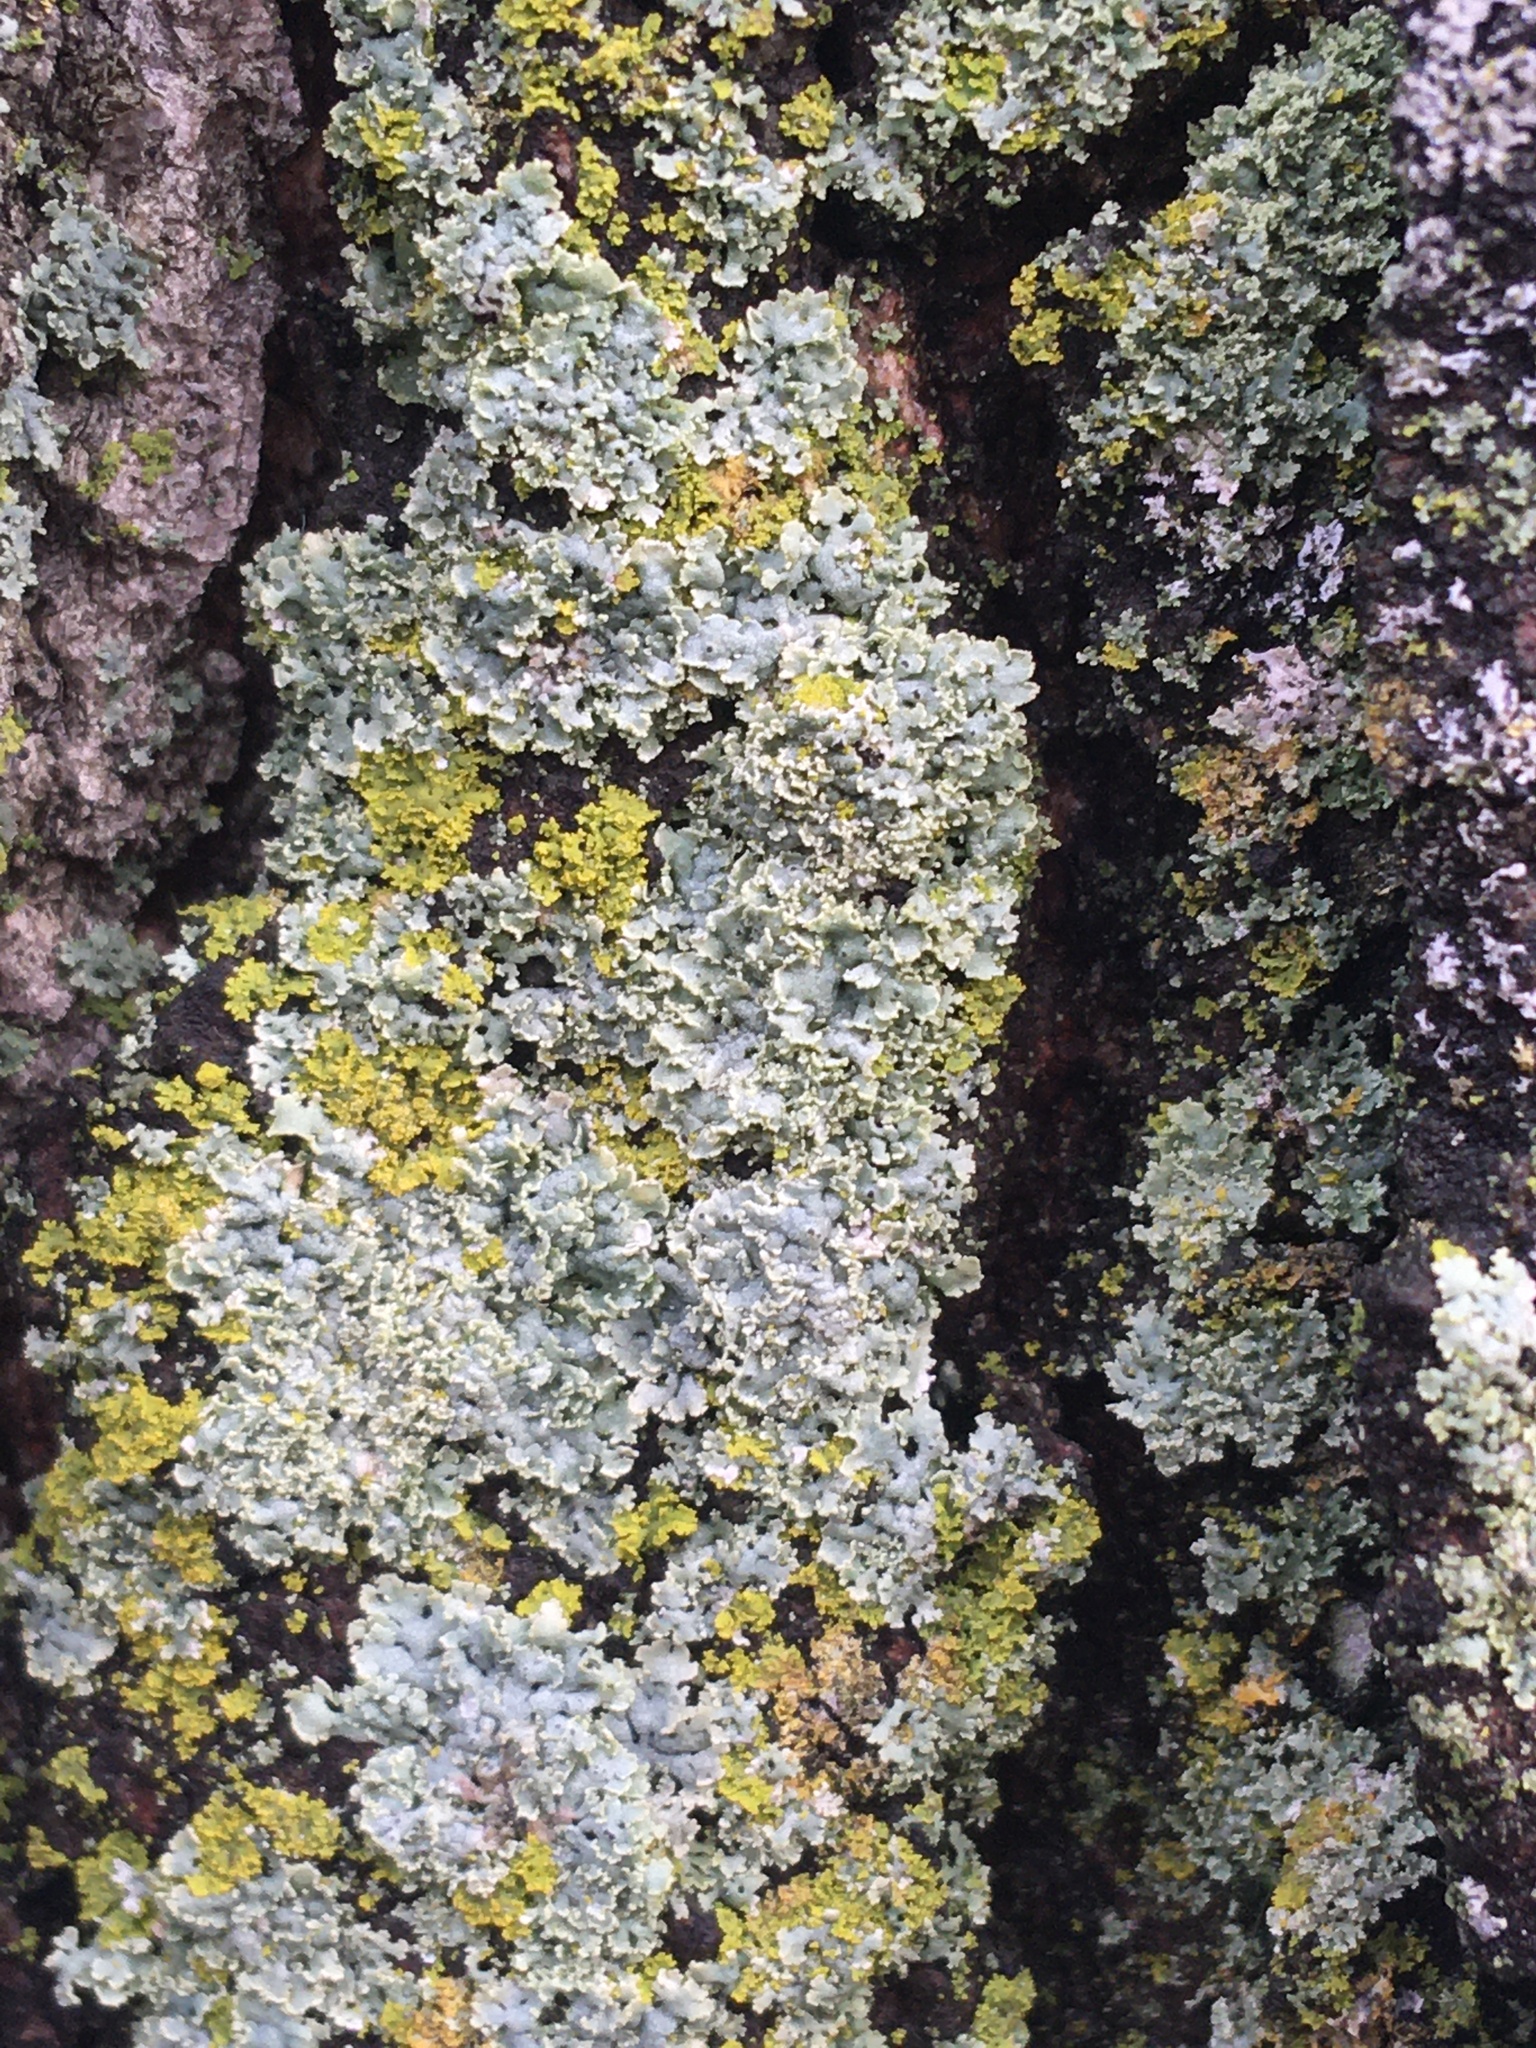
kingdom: Fungi
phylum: Ascomycota
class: Lecanoromycetes
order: Caliciales
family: Physciaceae
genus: Physcia
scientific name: Physcia millegrana
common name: Rosette lichen
